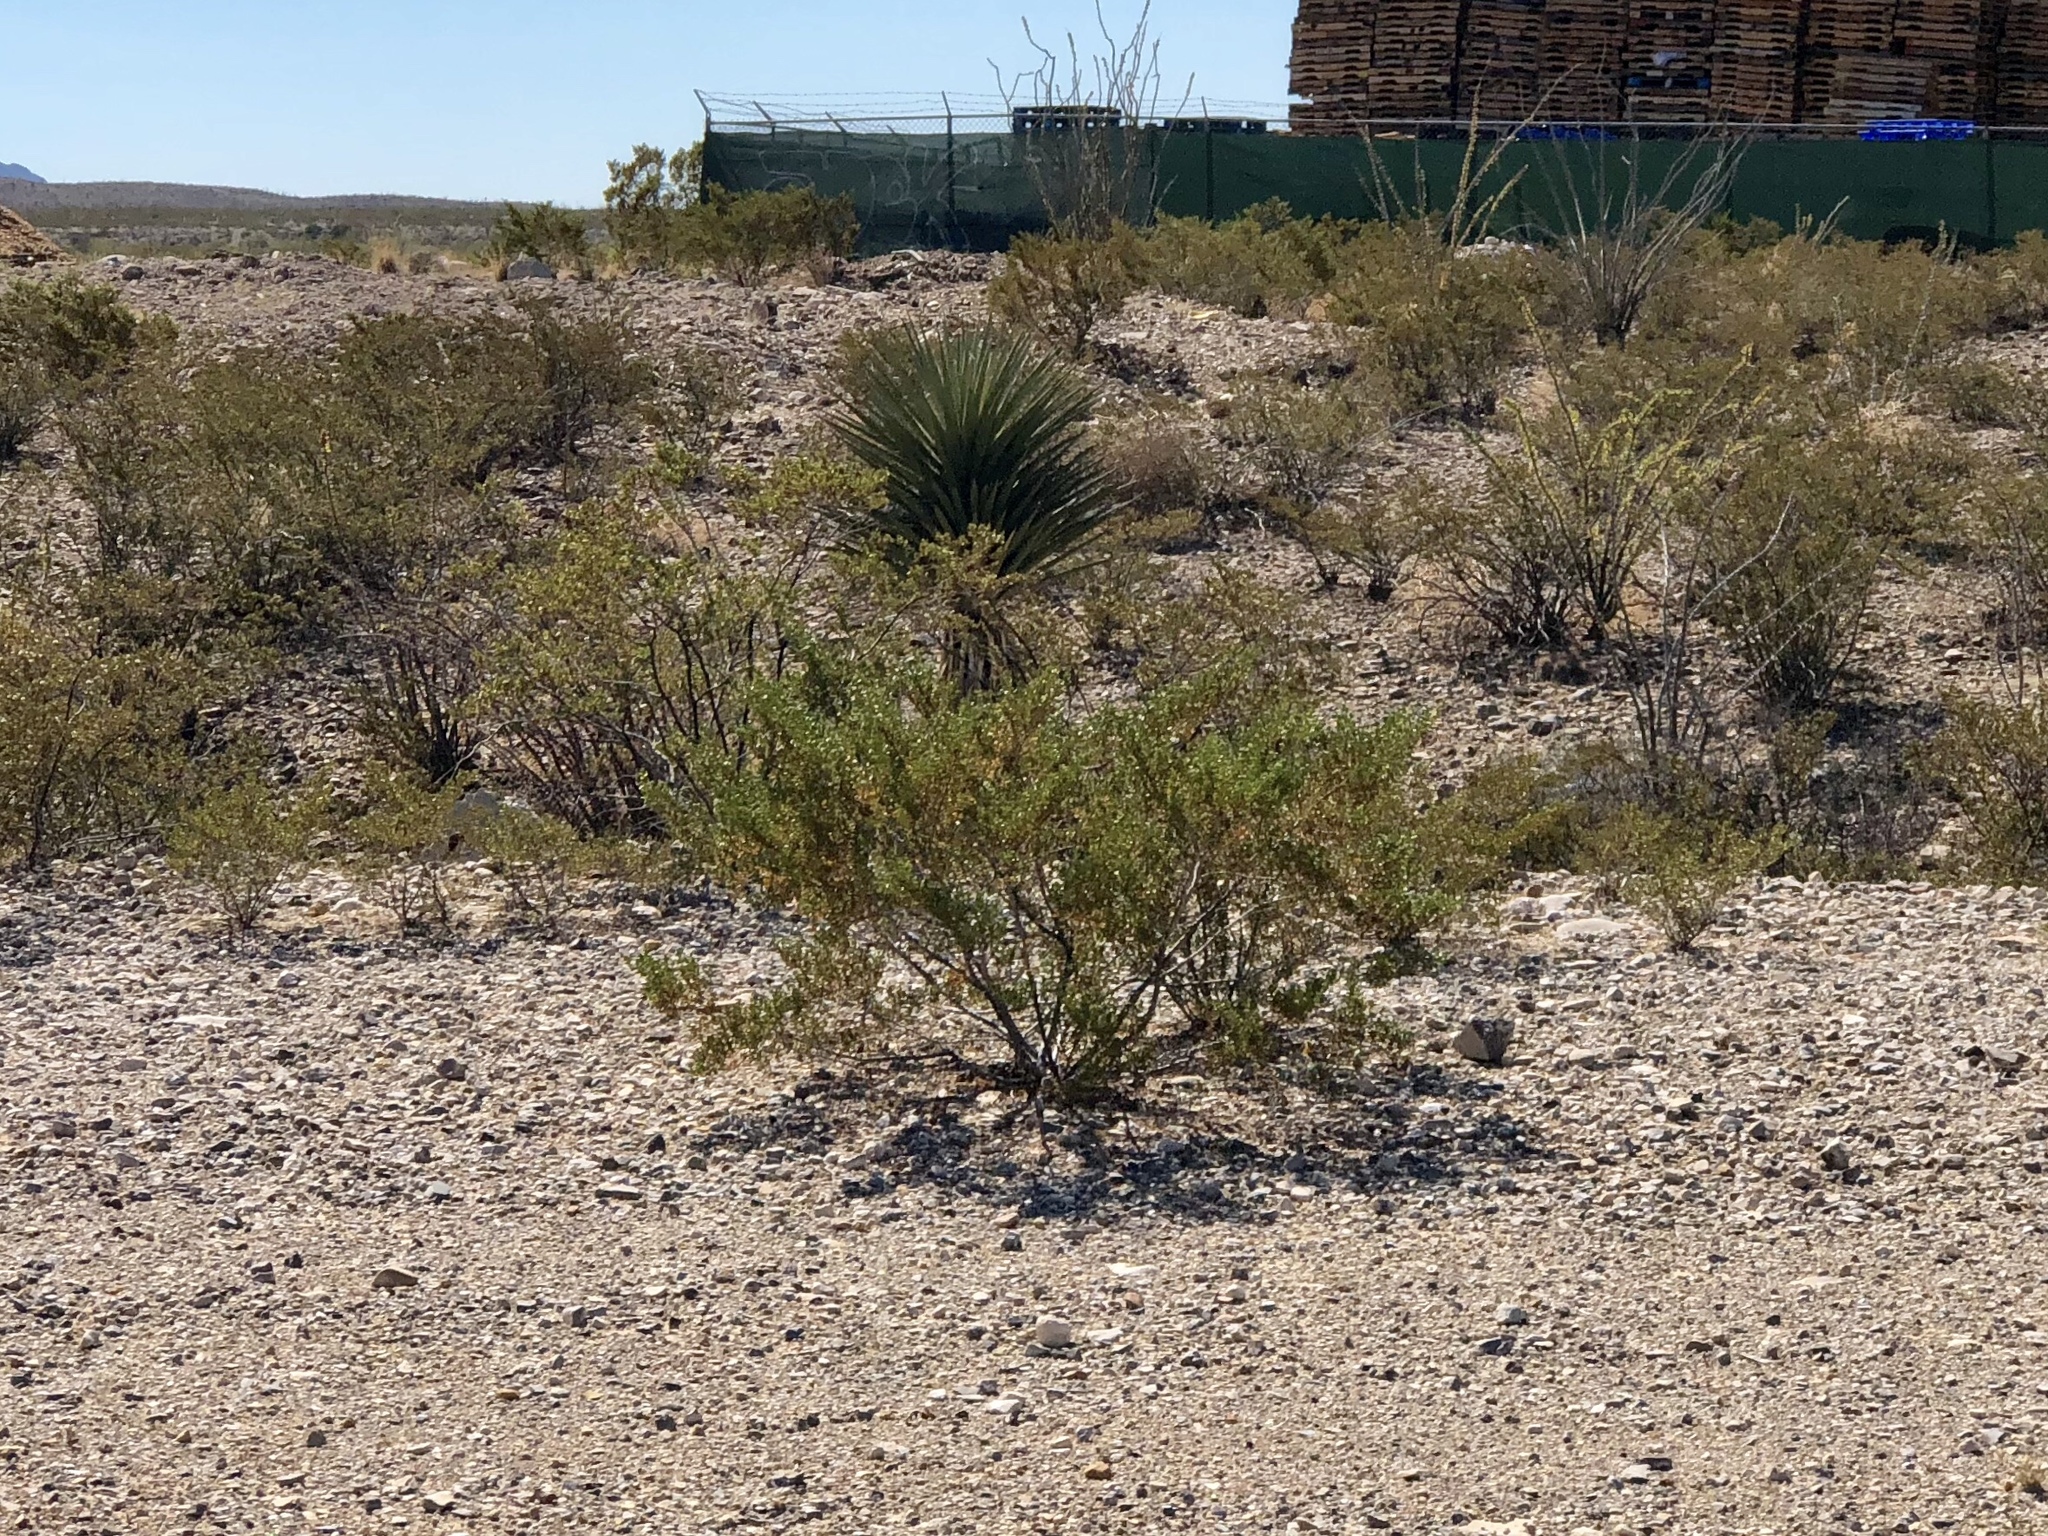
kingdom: Plantae
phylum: Tracheophyta
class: Magnoliopsida
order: Zygophyllales
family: Zygophyllaceae
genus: Larrea
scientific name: Larrea tridentata
